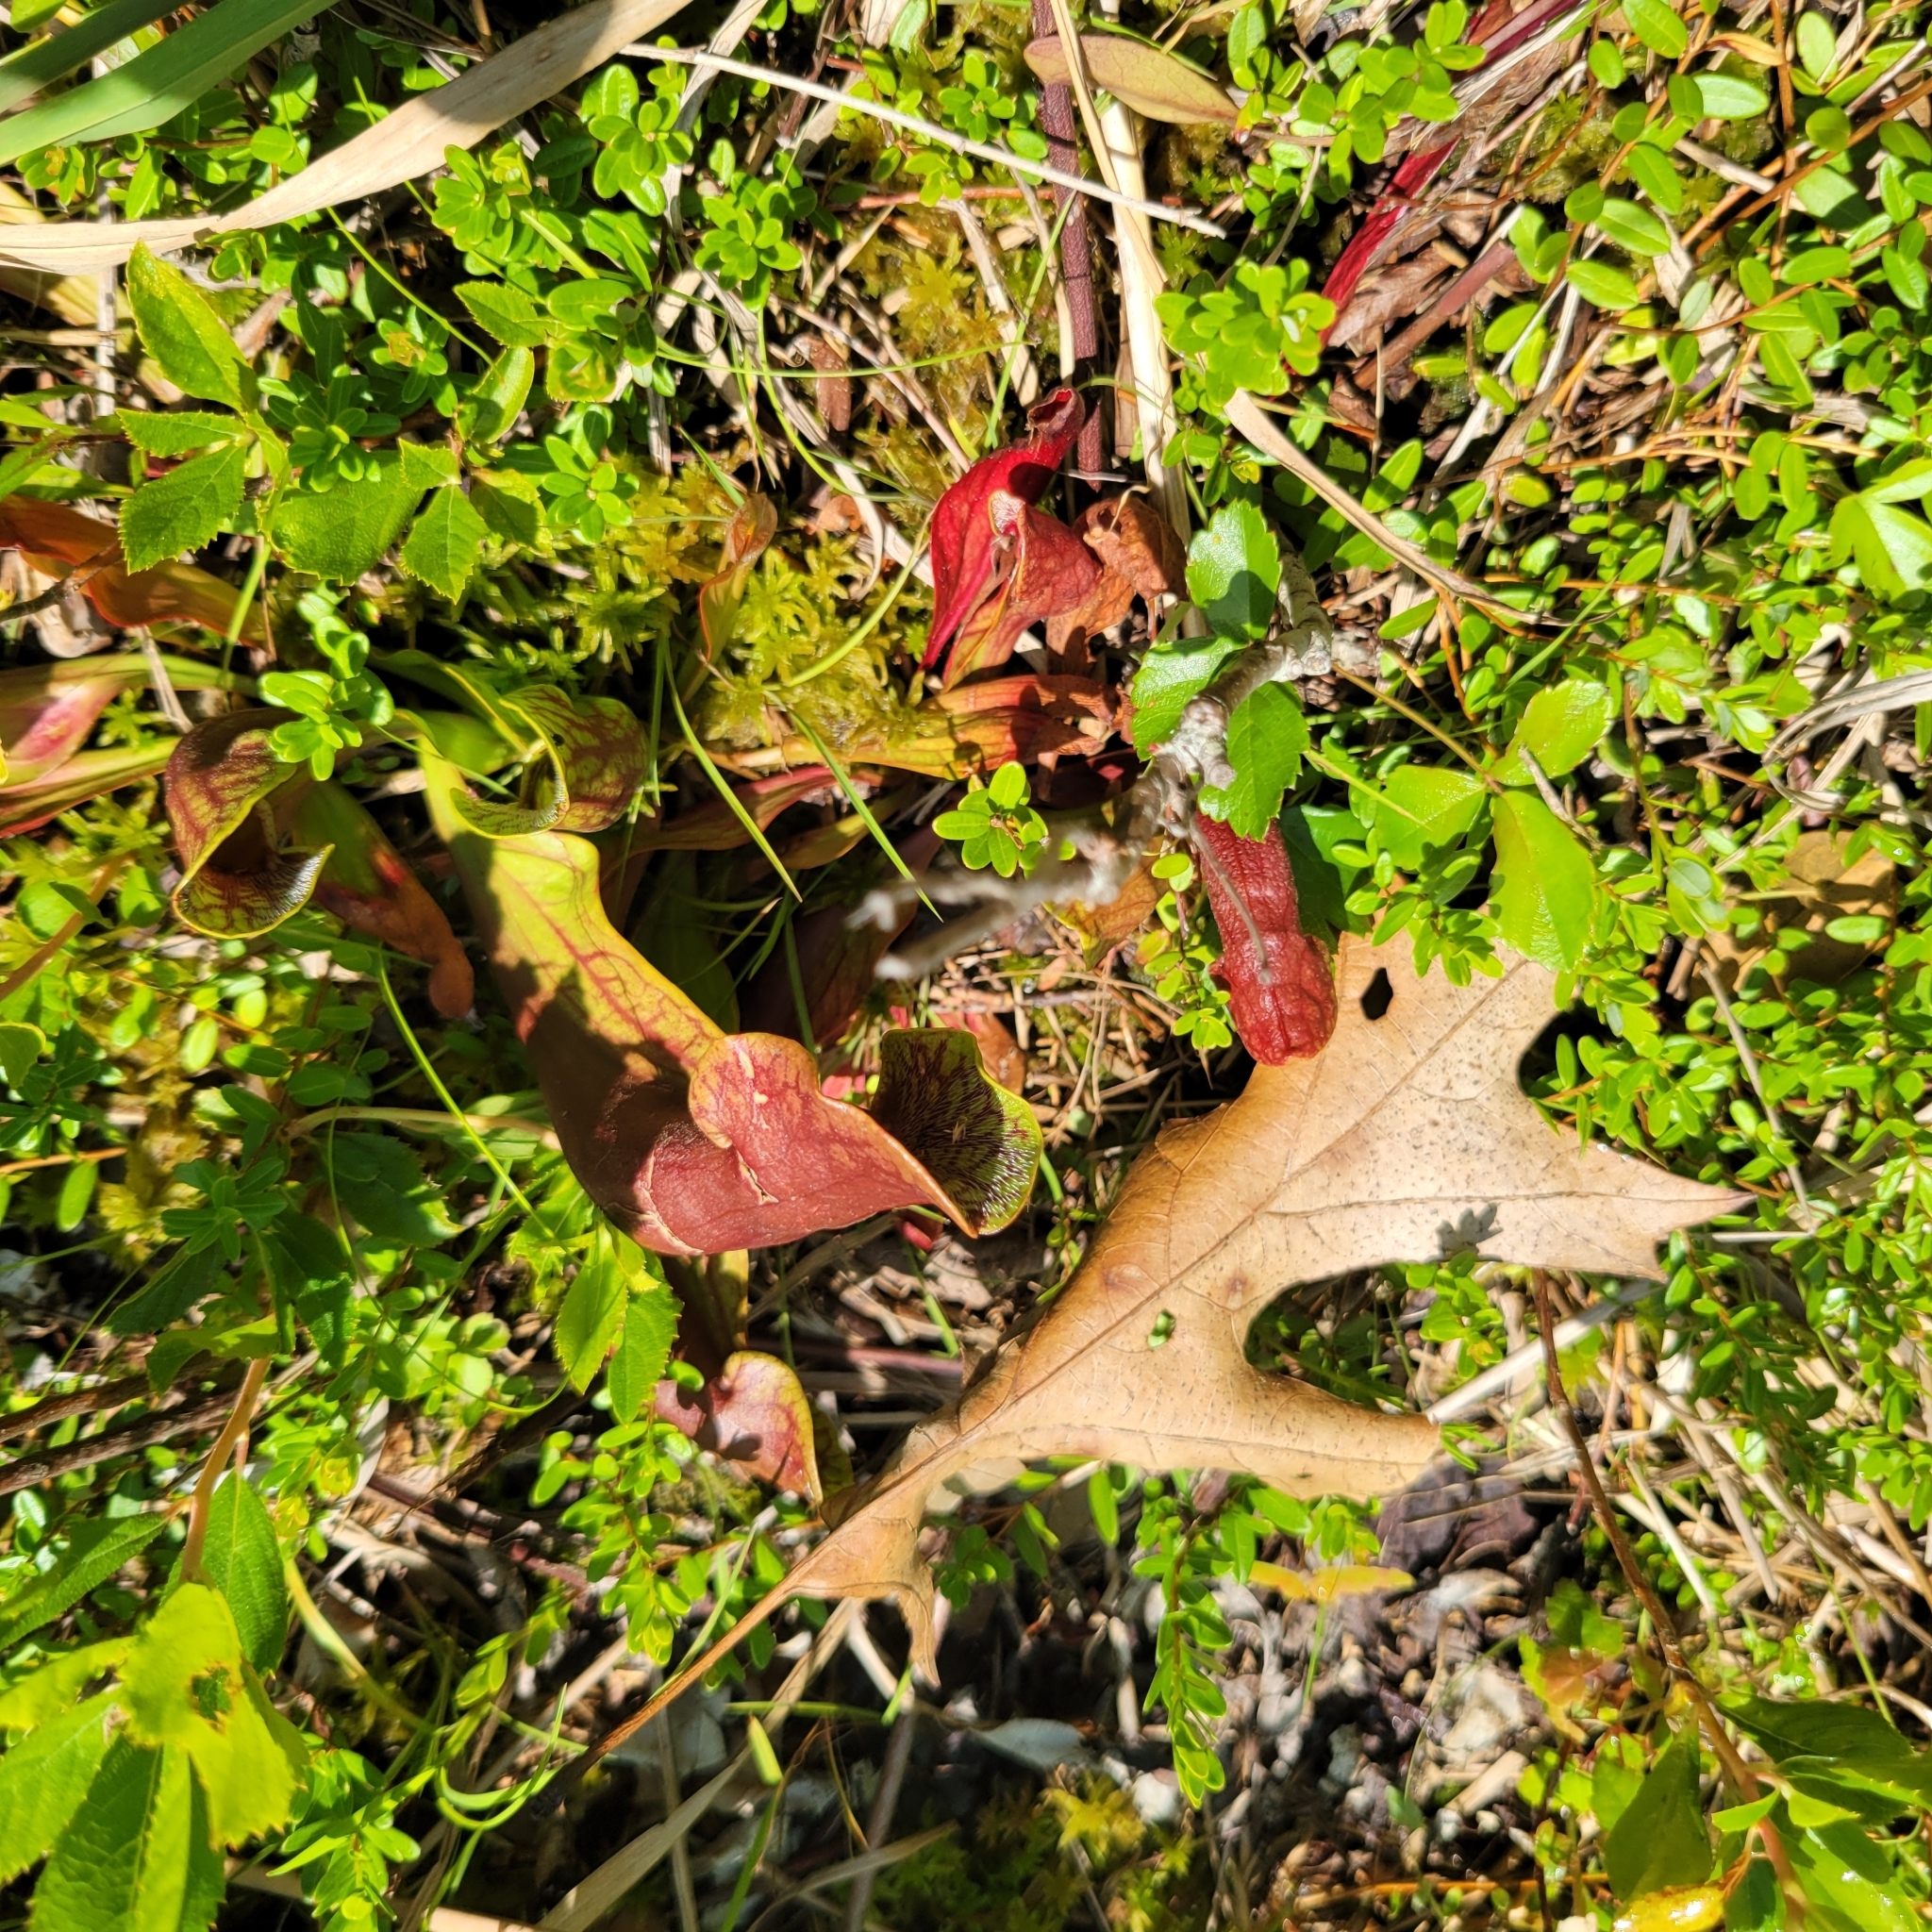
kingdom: Plantae
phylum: Tracheophyta
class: Magnoliopsida
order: Ericales
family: Sarraceniaceae
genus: Sarracenia
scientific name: Sarracenia purpurea
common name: Pitcherplant
